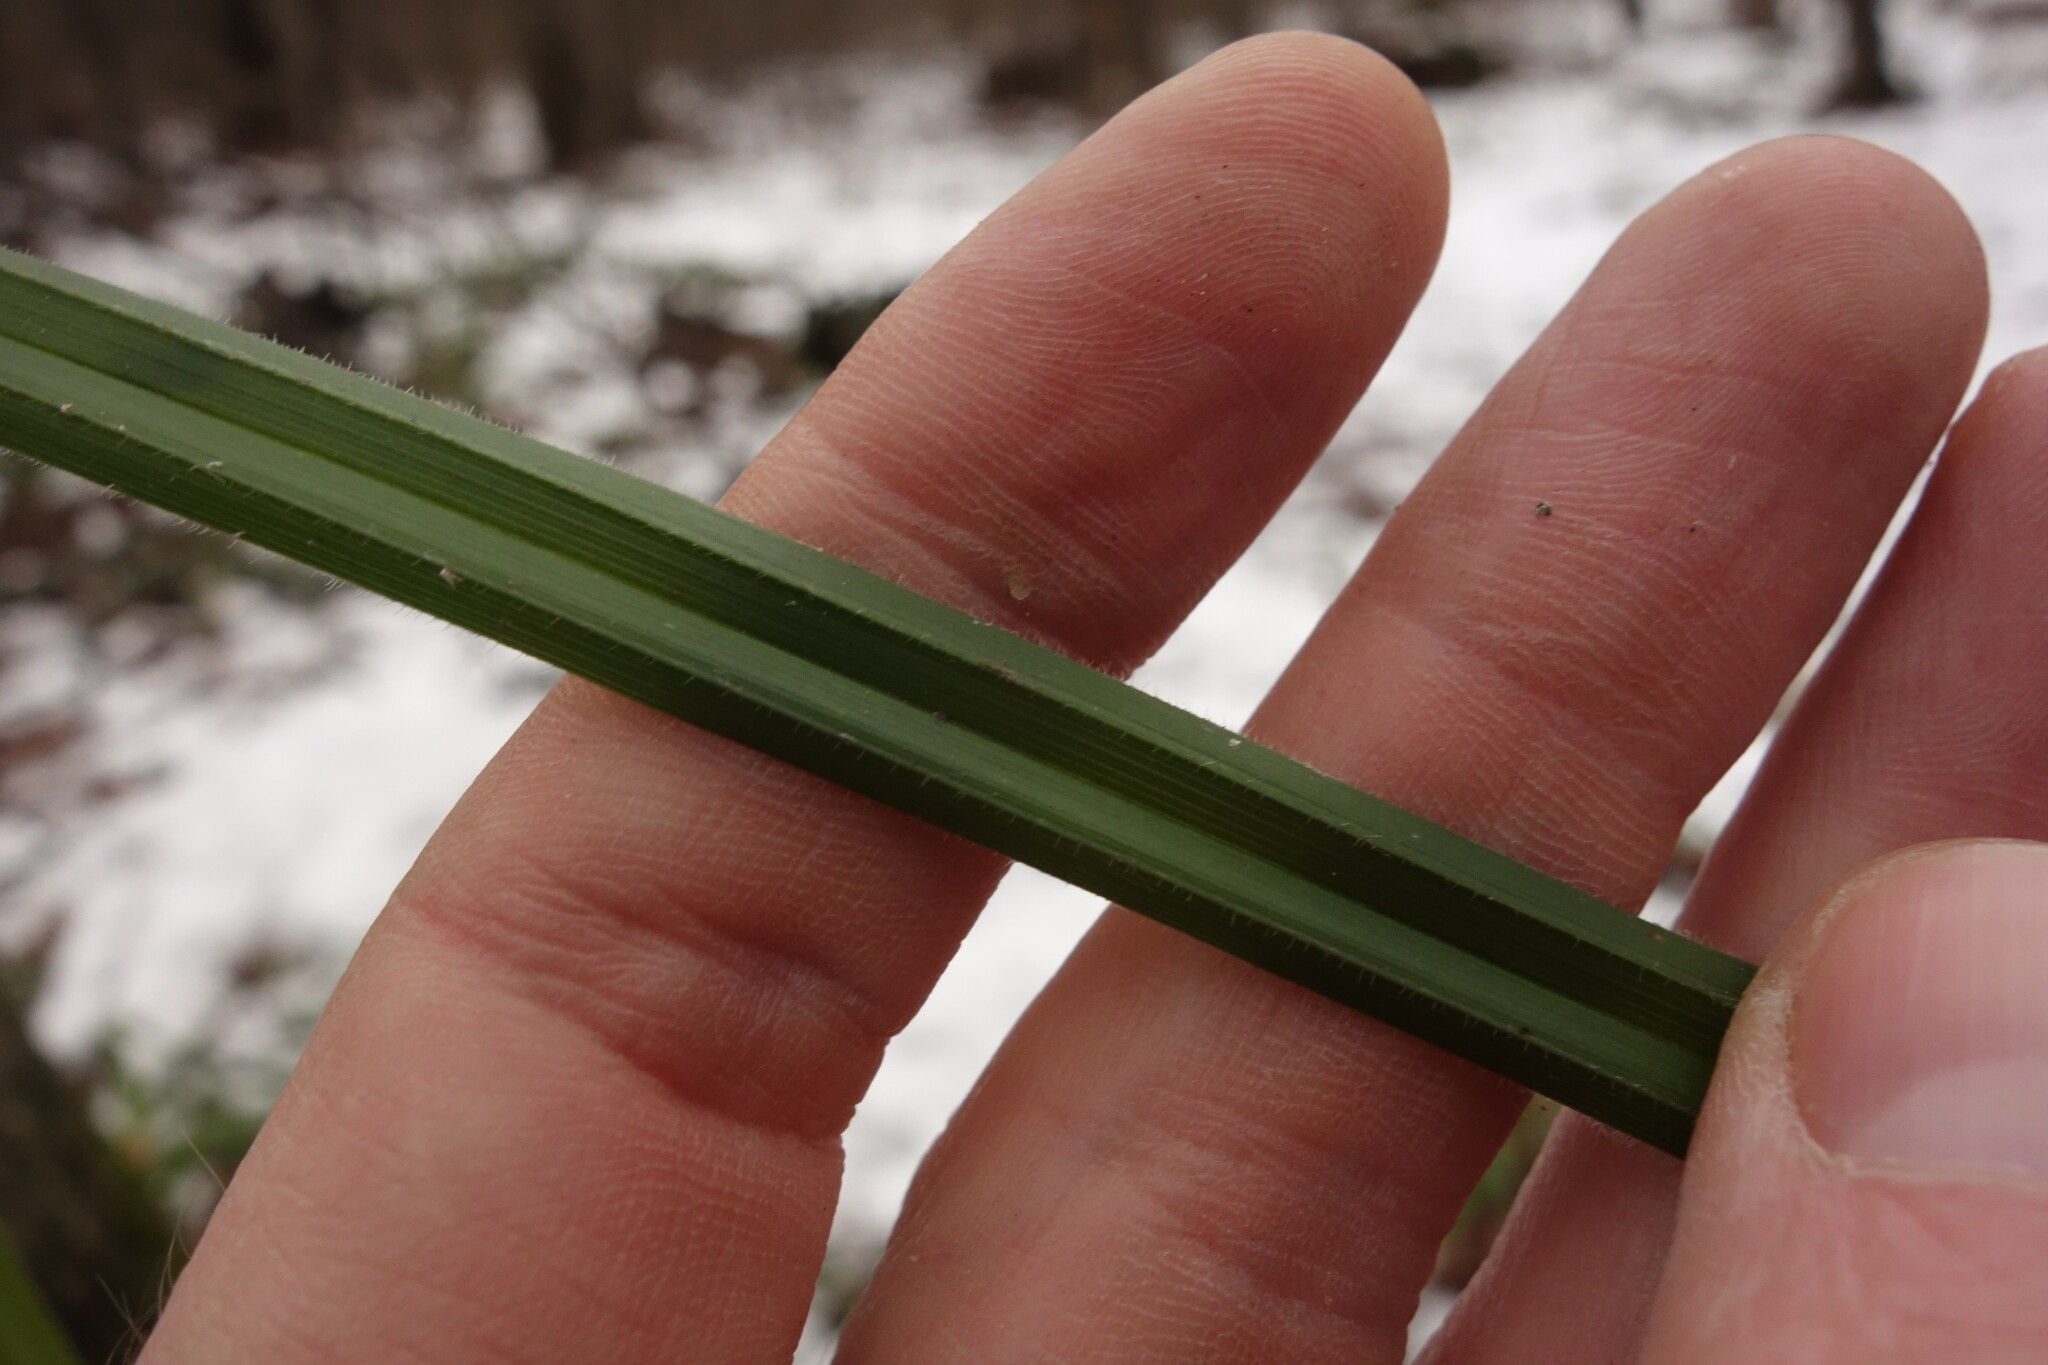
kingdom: Plantae
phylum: Tracheophyta
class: Liliopsida
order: Poales
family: Cyperaceae
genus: Carex
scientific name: Carex pilosa
